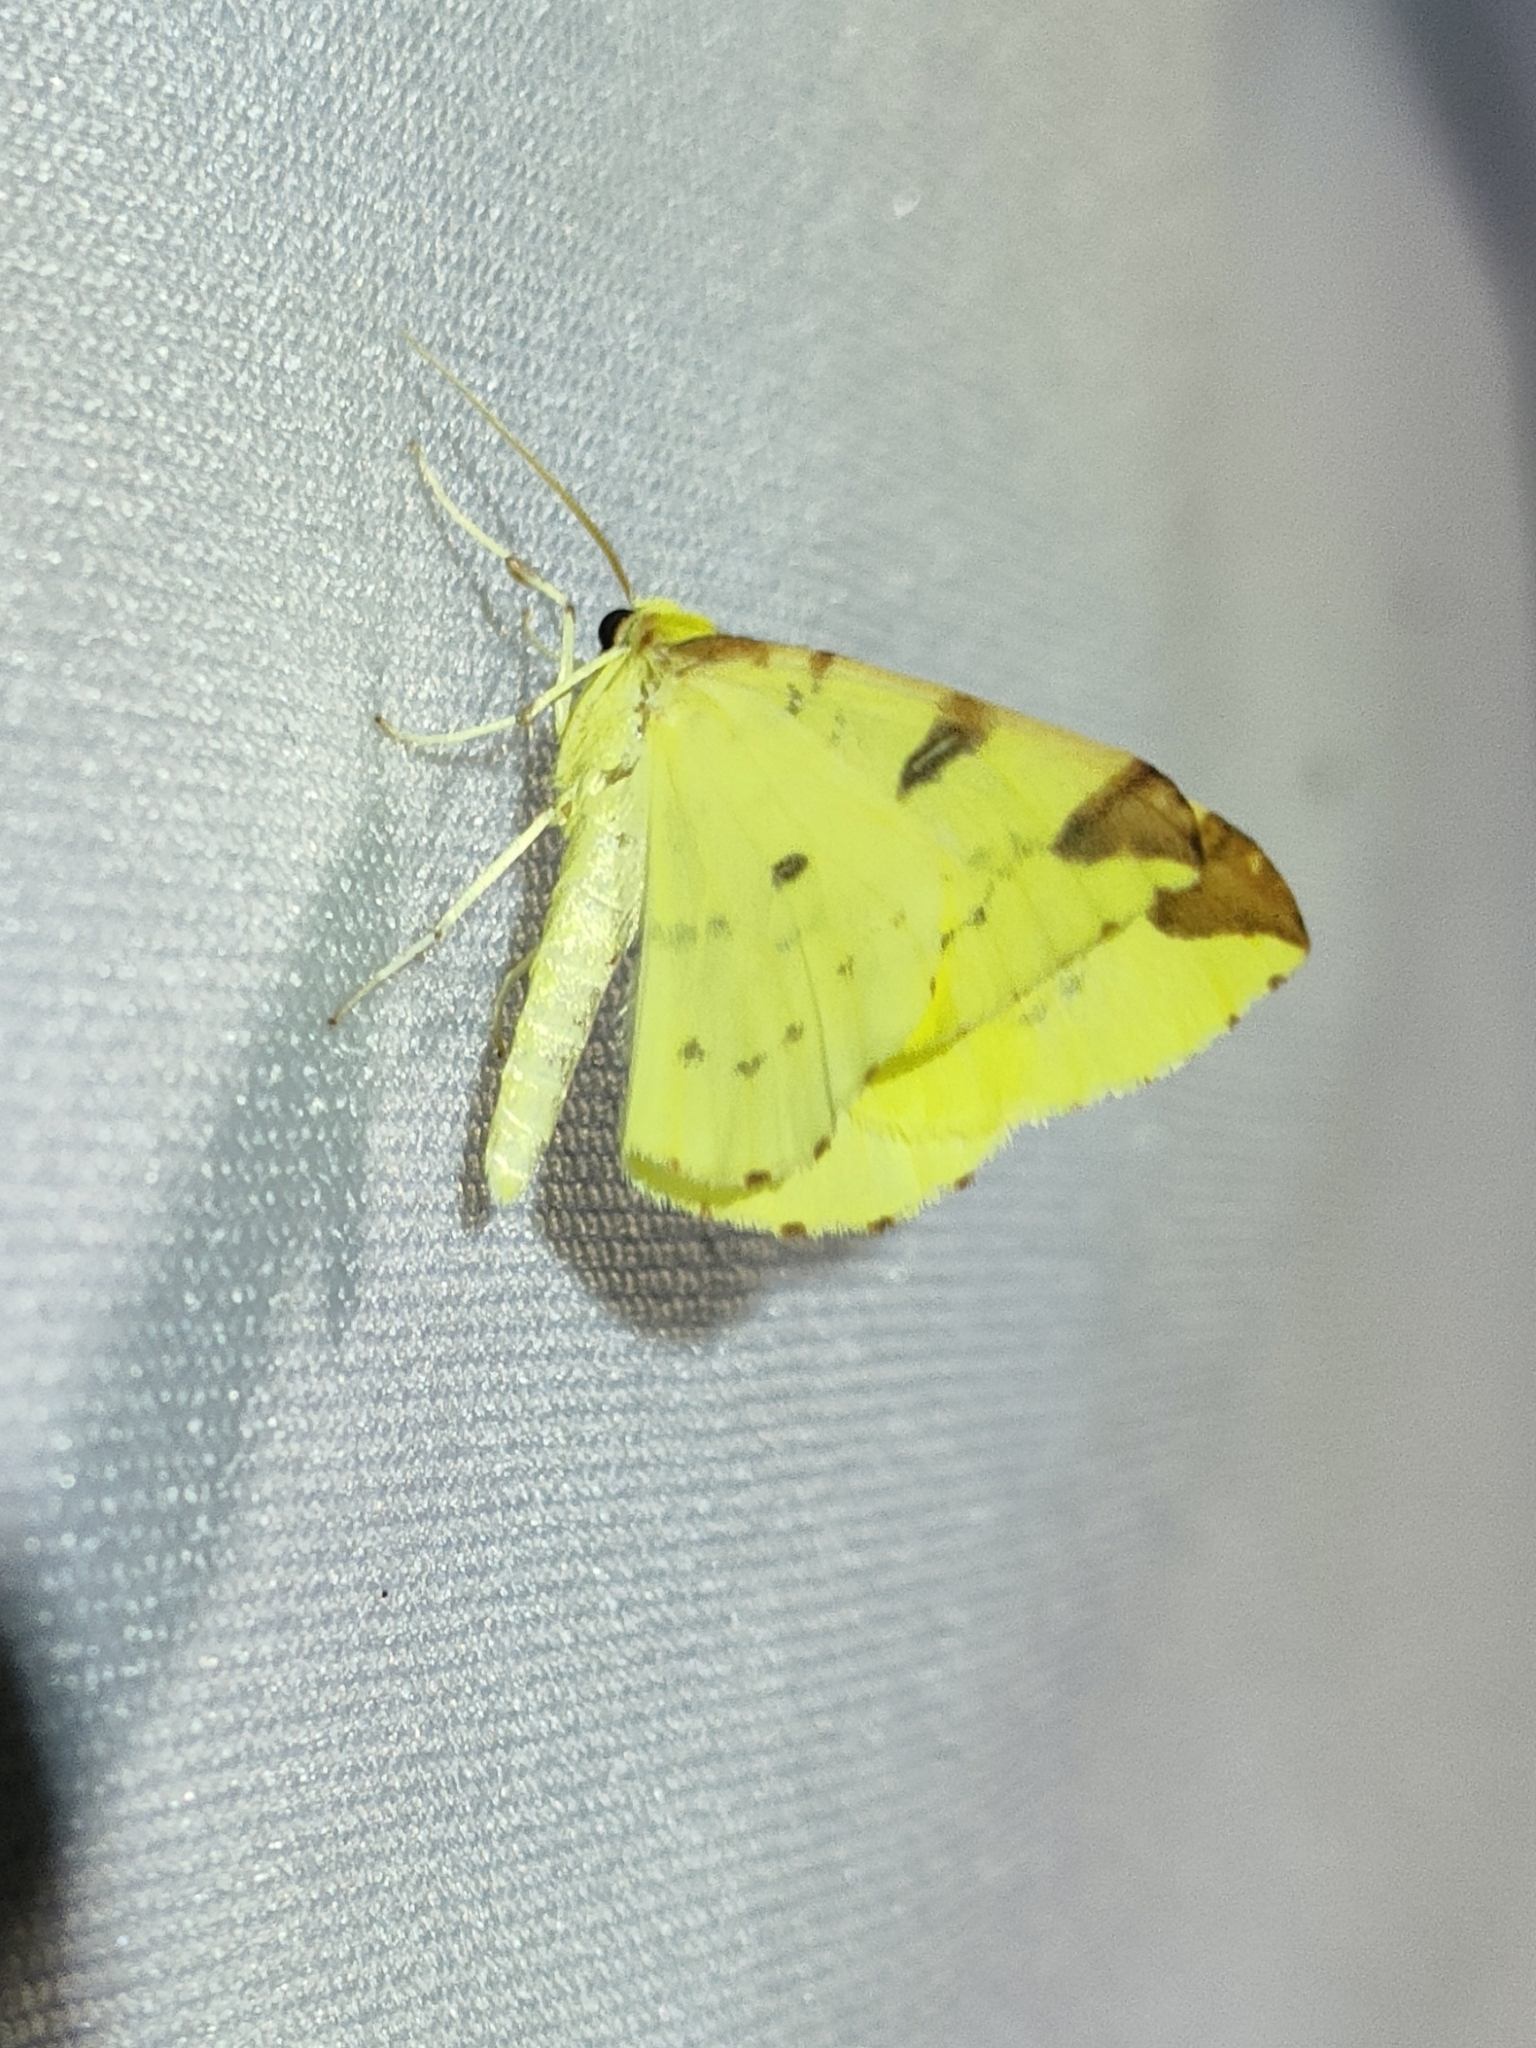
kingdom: Animalia
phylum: Arthropoda
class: Insecta
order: Lepidoptera
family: Geometridae
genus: Opisthograptis
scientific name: Opisthograptis luteolata
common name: Brimstone moth
